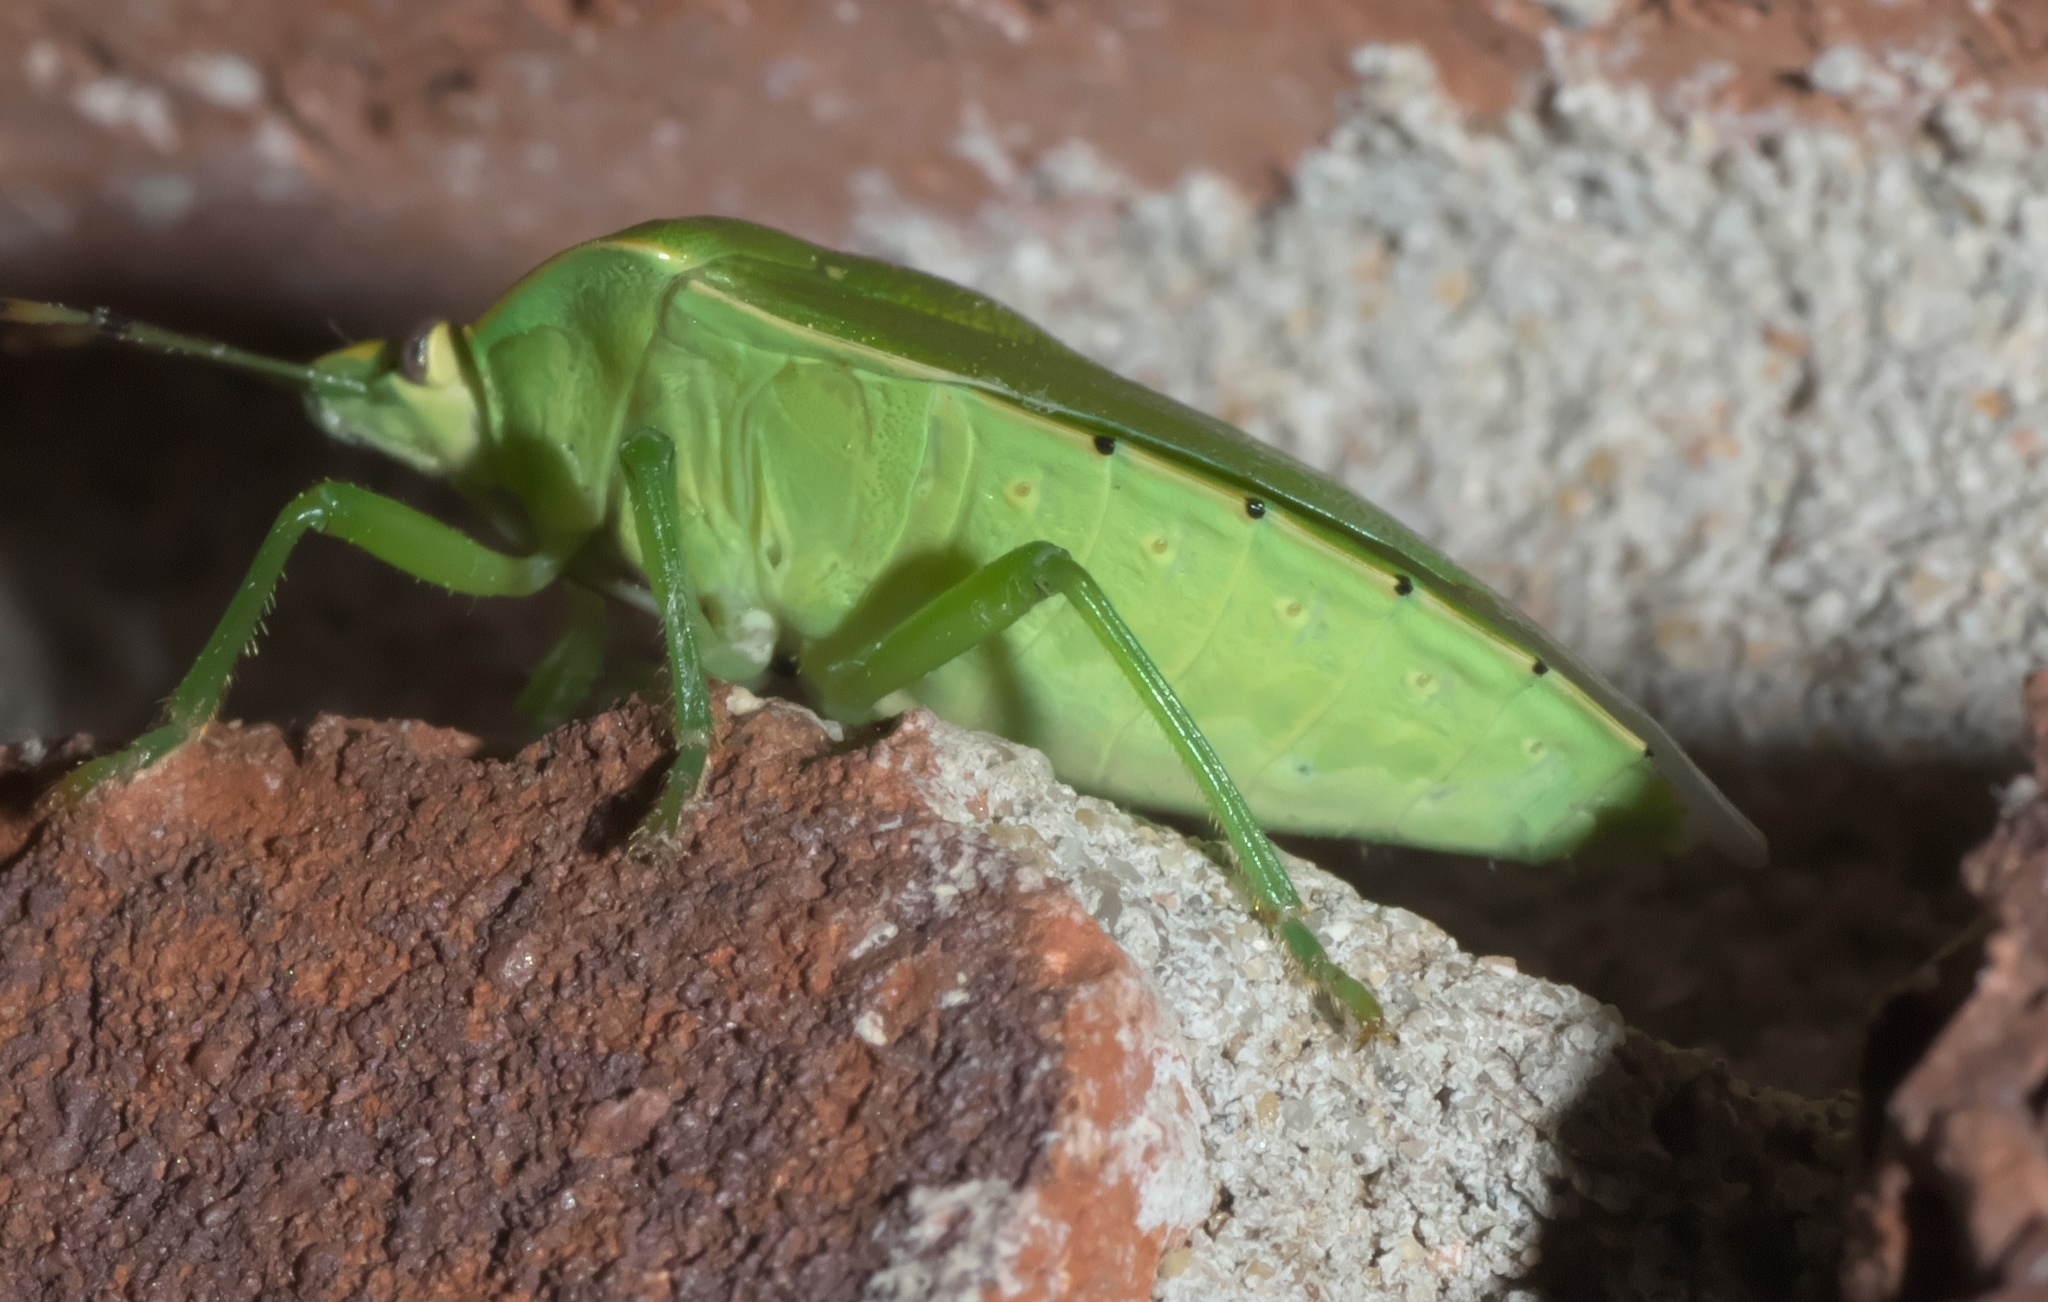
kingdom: Animalia
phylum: Arthropoda
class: Insecta
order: Hemiptera
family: Pentatomidae
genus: Chinavia
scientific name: Chinavia hilaris
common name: Green stink bug
